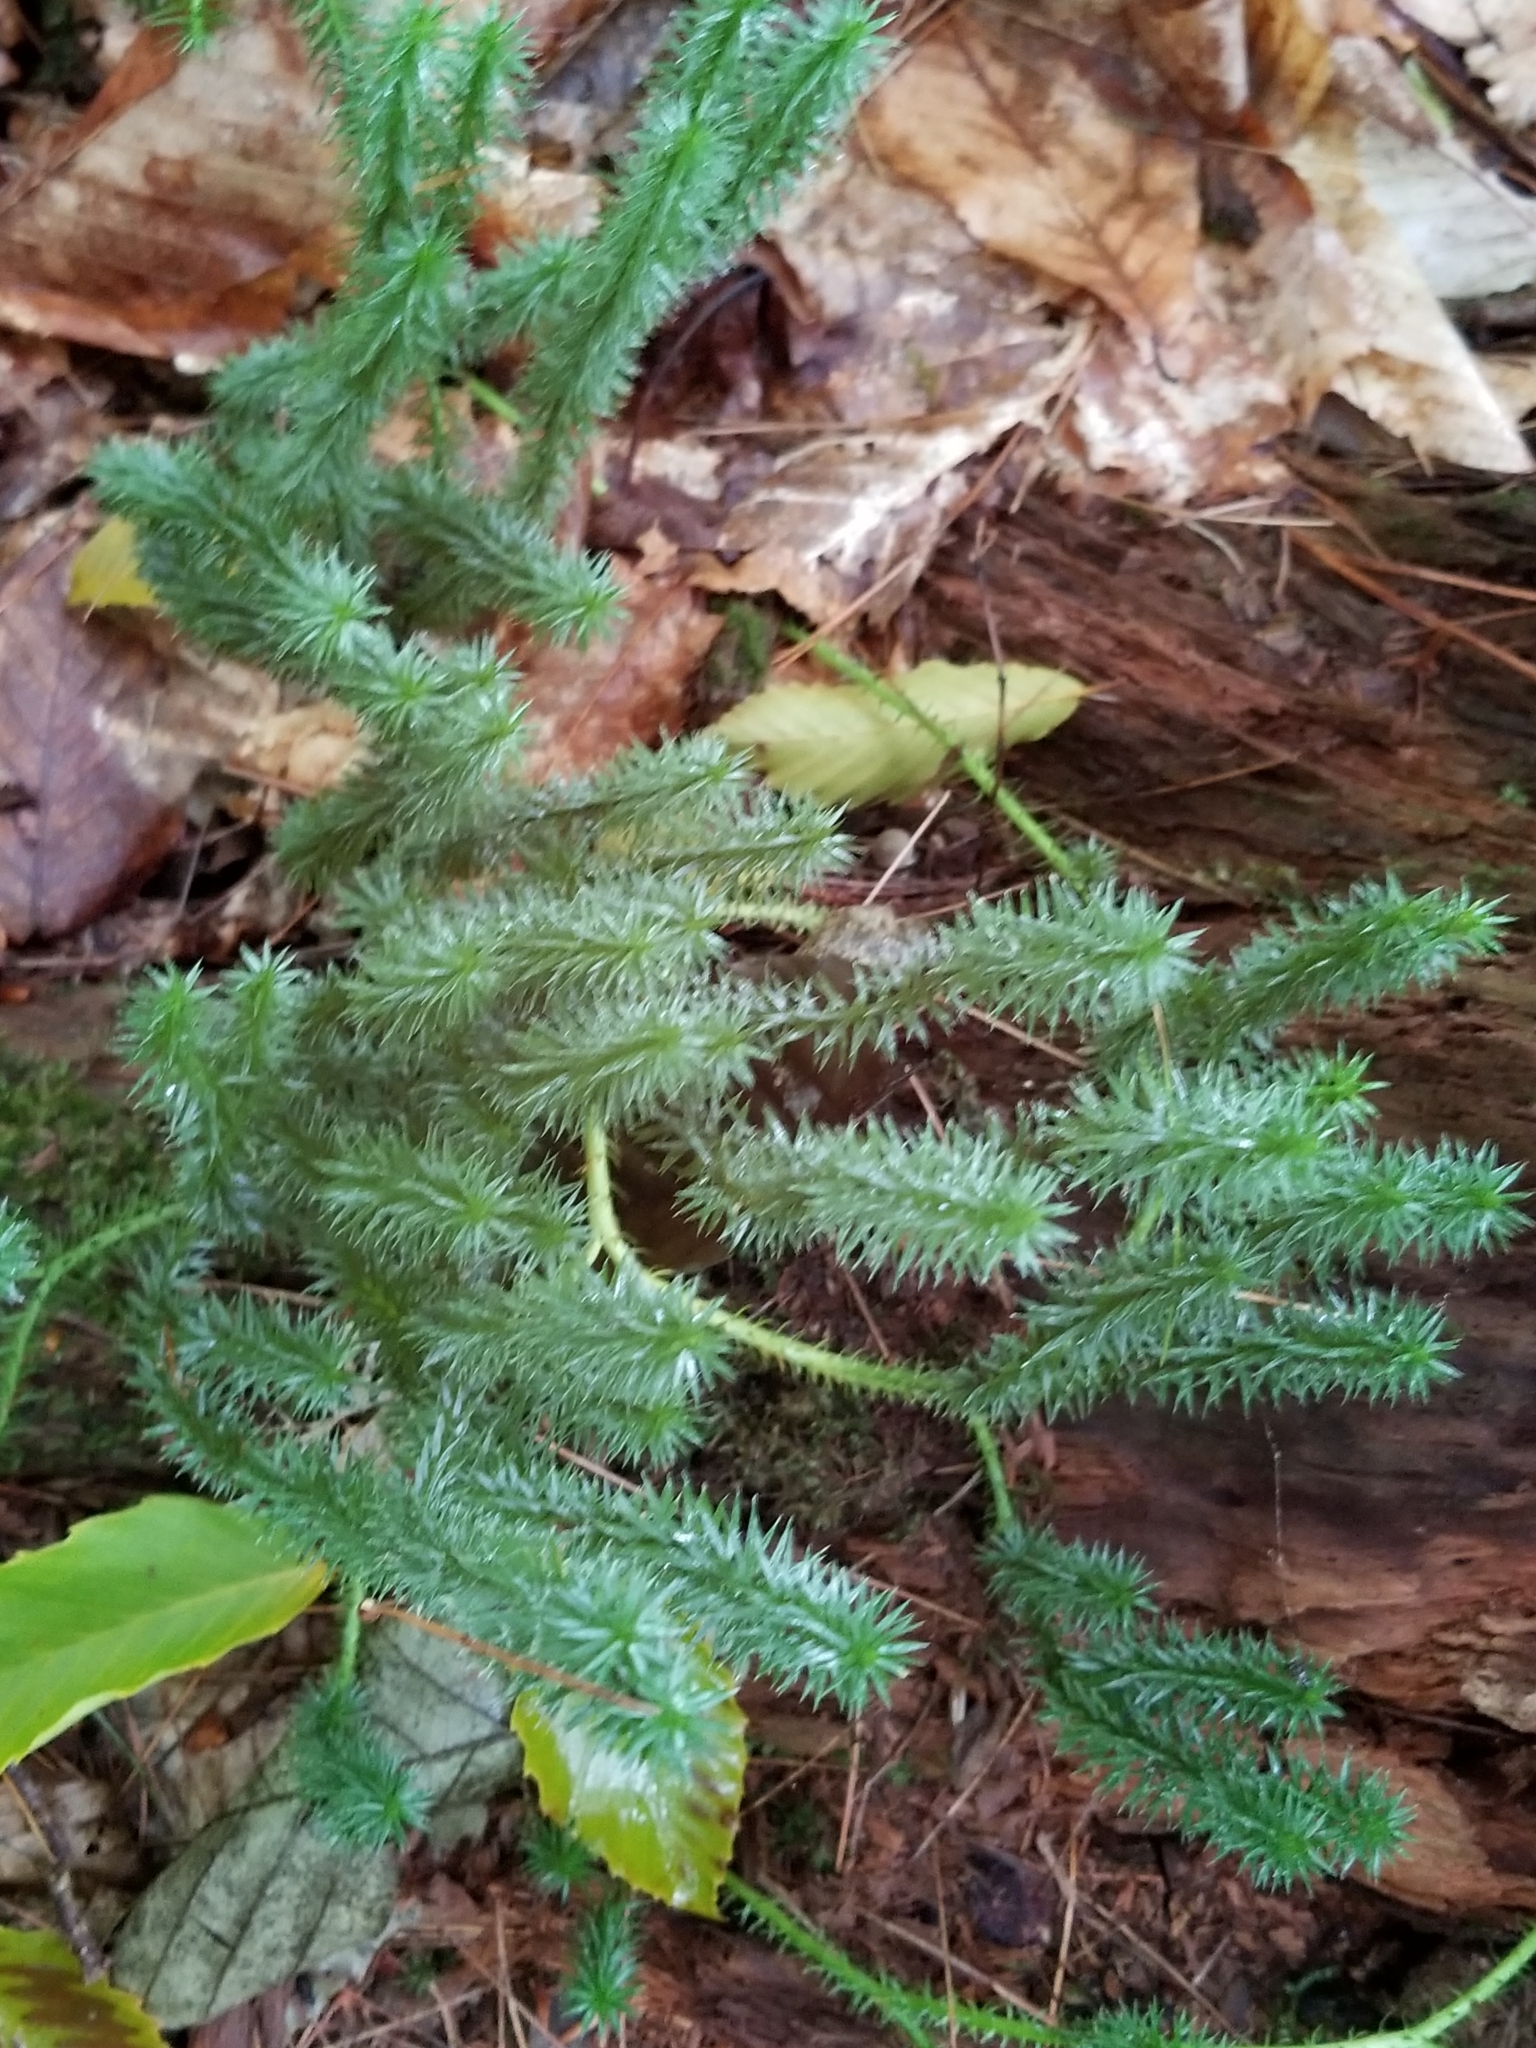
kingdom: Plantae
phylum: Tracheophyta
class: Lycopodiopsida
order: Lycopodiales
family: Lycopodiaceae
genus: Spinulum
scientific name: Spinulum annotinum
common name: Interrupted club-moss
